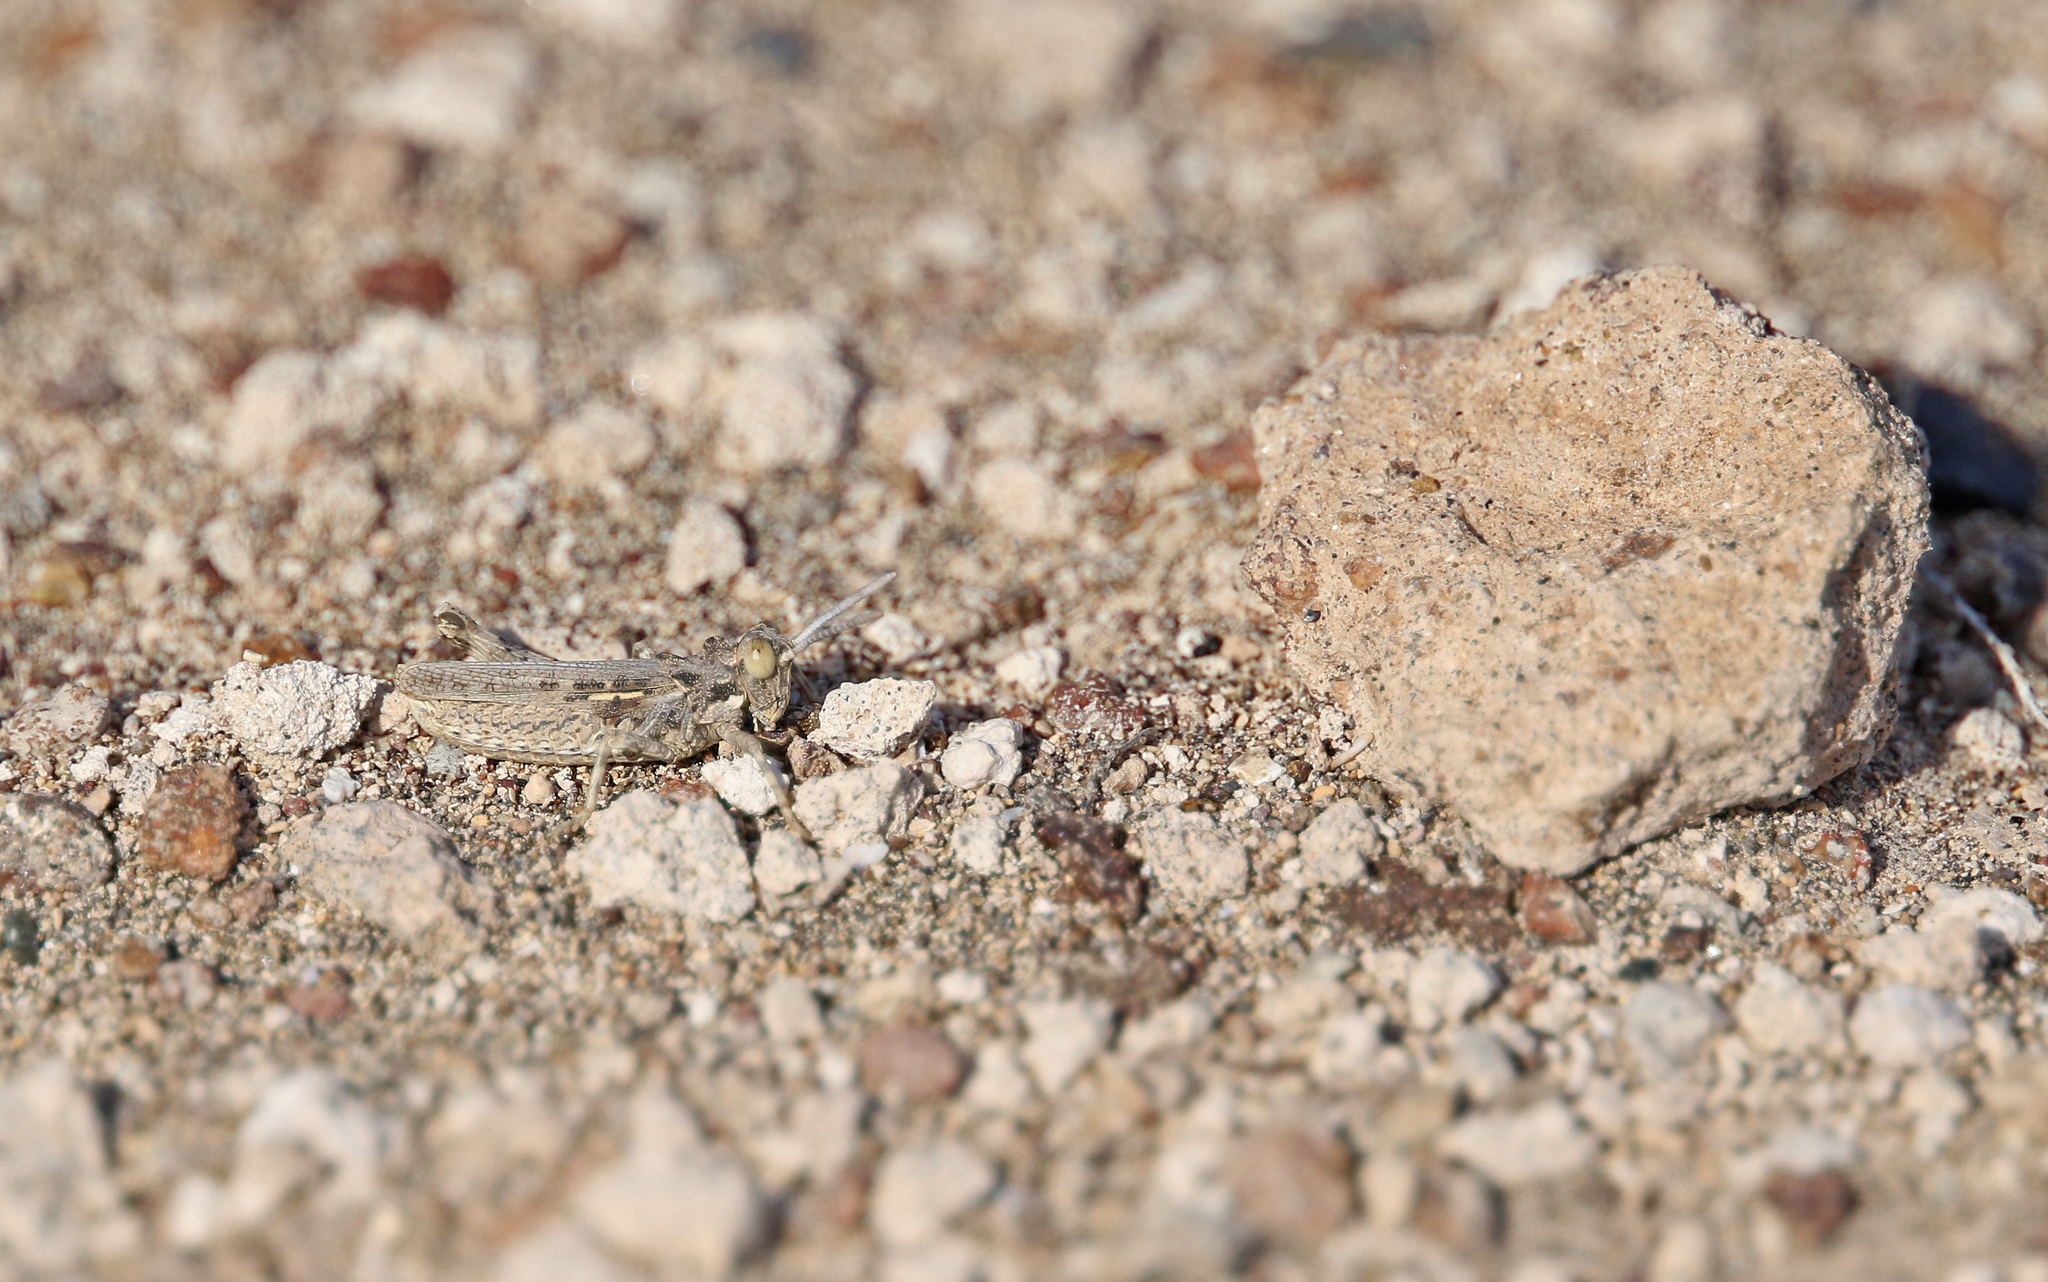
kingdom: Animalia
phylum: Arthropoda
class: Insecta
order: Orthoptera
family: Dericorythidae
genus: Dericorys
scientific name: Dericorys minutus
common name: Gran canaria crested grasshopper
